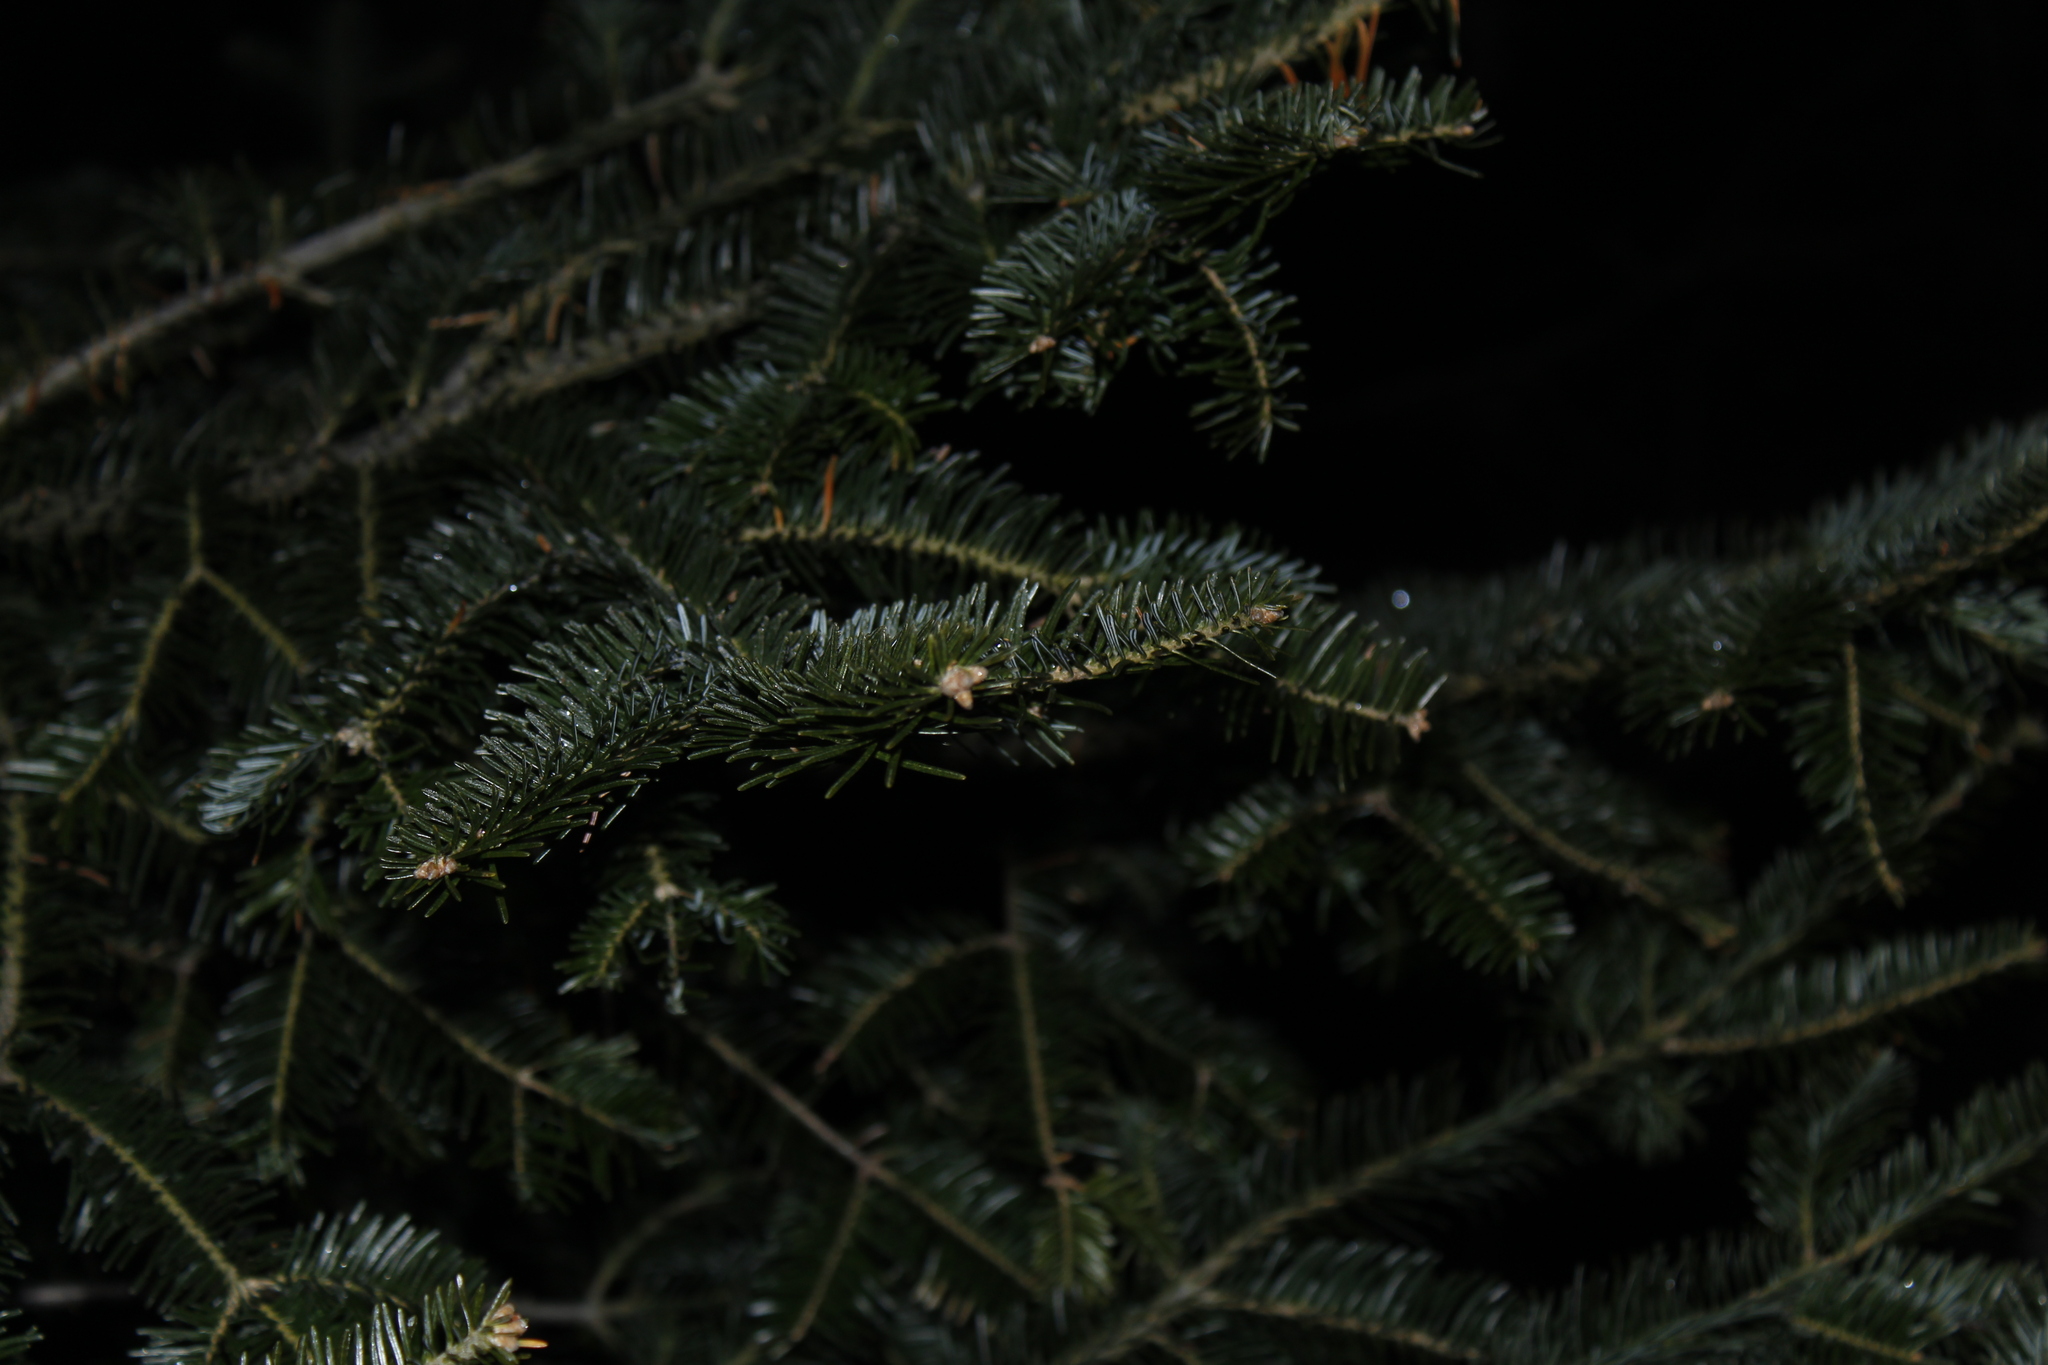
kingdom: Plantae
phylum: Tracheophyta
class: Pinopsida
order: Pinales
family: Pinaceae
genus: Abies
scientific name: Abies balsamea
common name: Balsam fir
